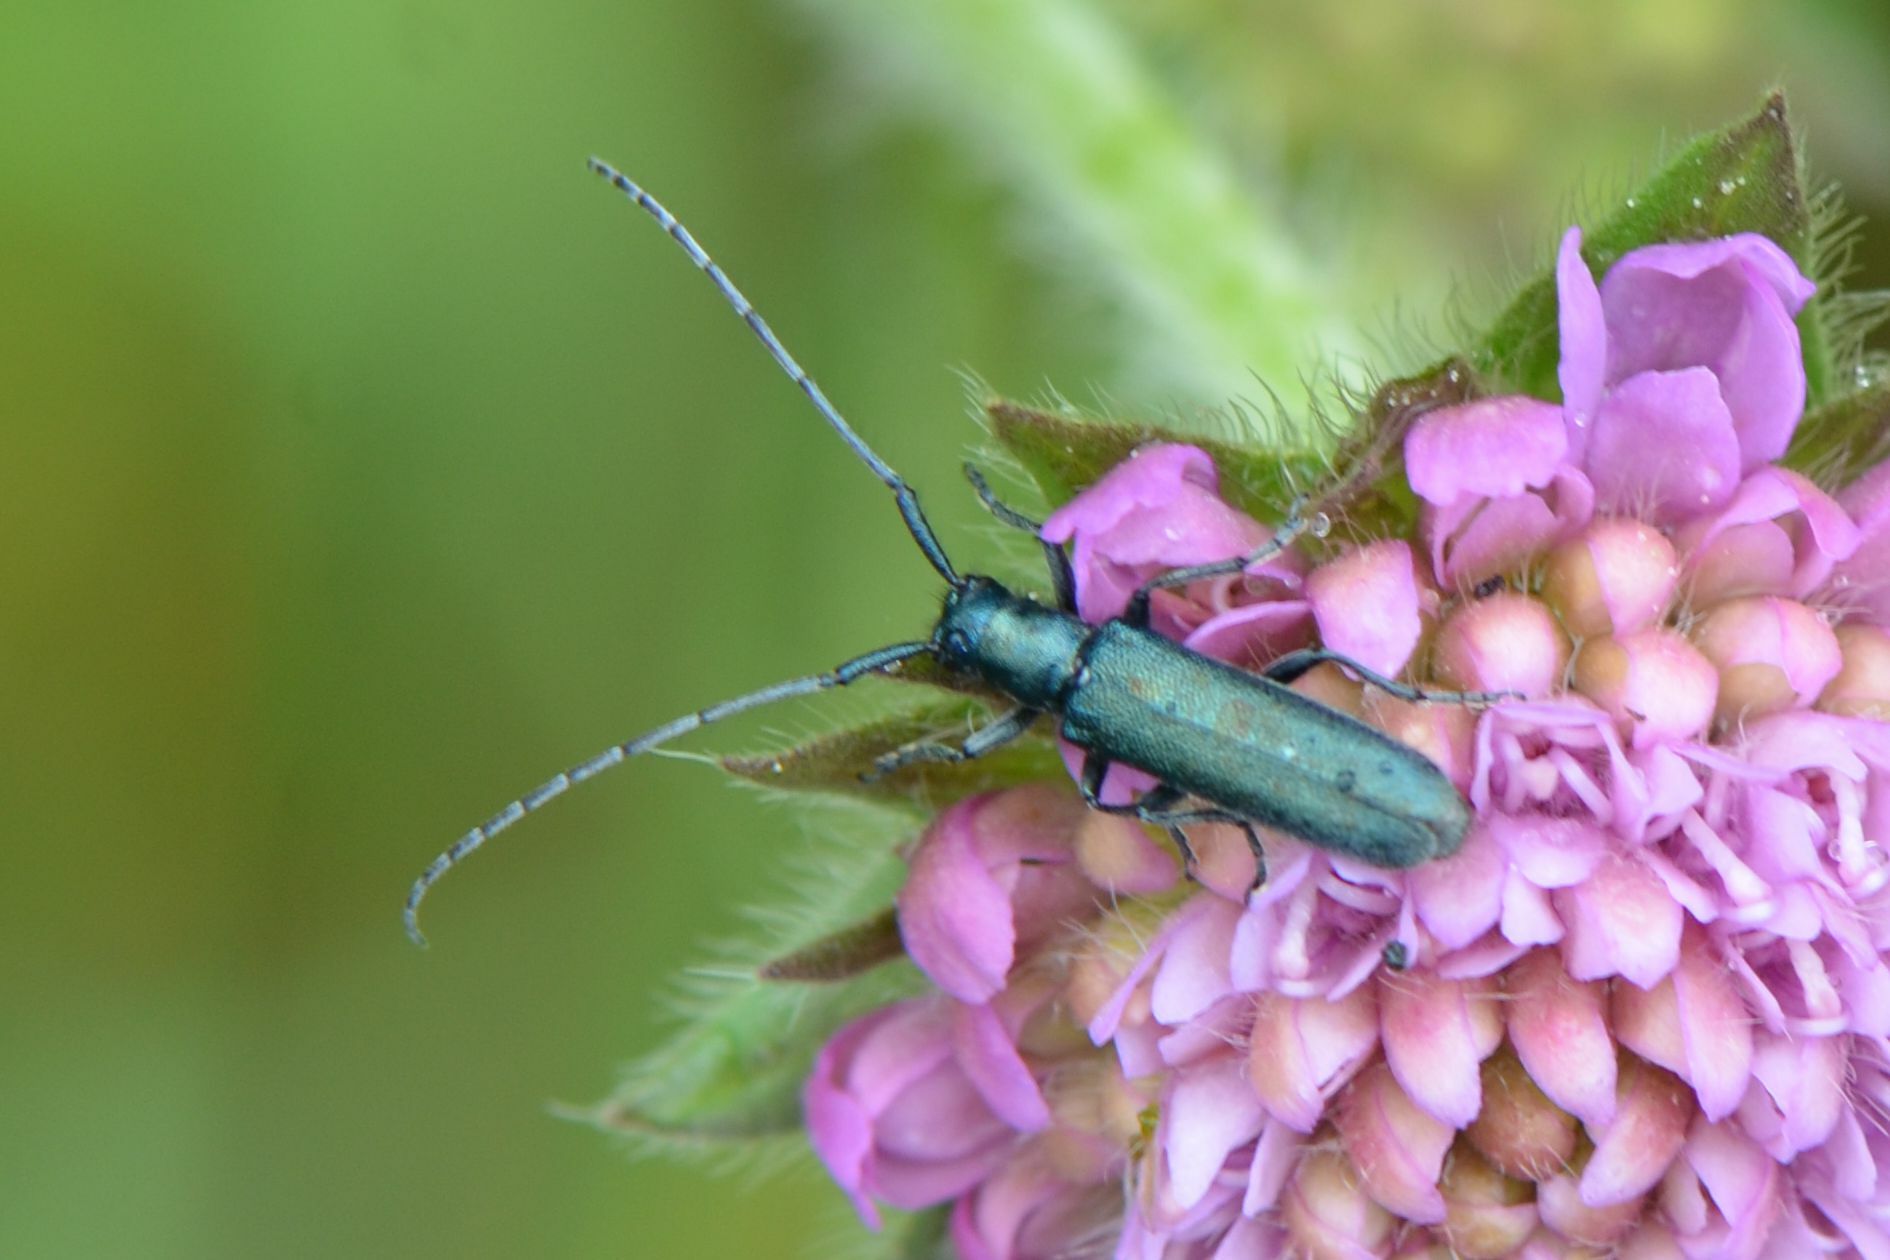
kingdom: Animalia
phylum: Arthropoda
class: Insecta
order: Coleoptera
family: Cerambycidae
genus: Agapanthia
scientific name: Agapanthia intermedia
